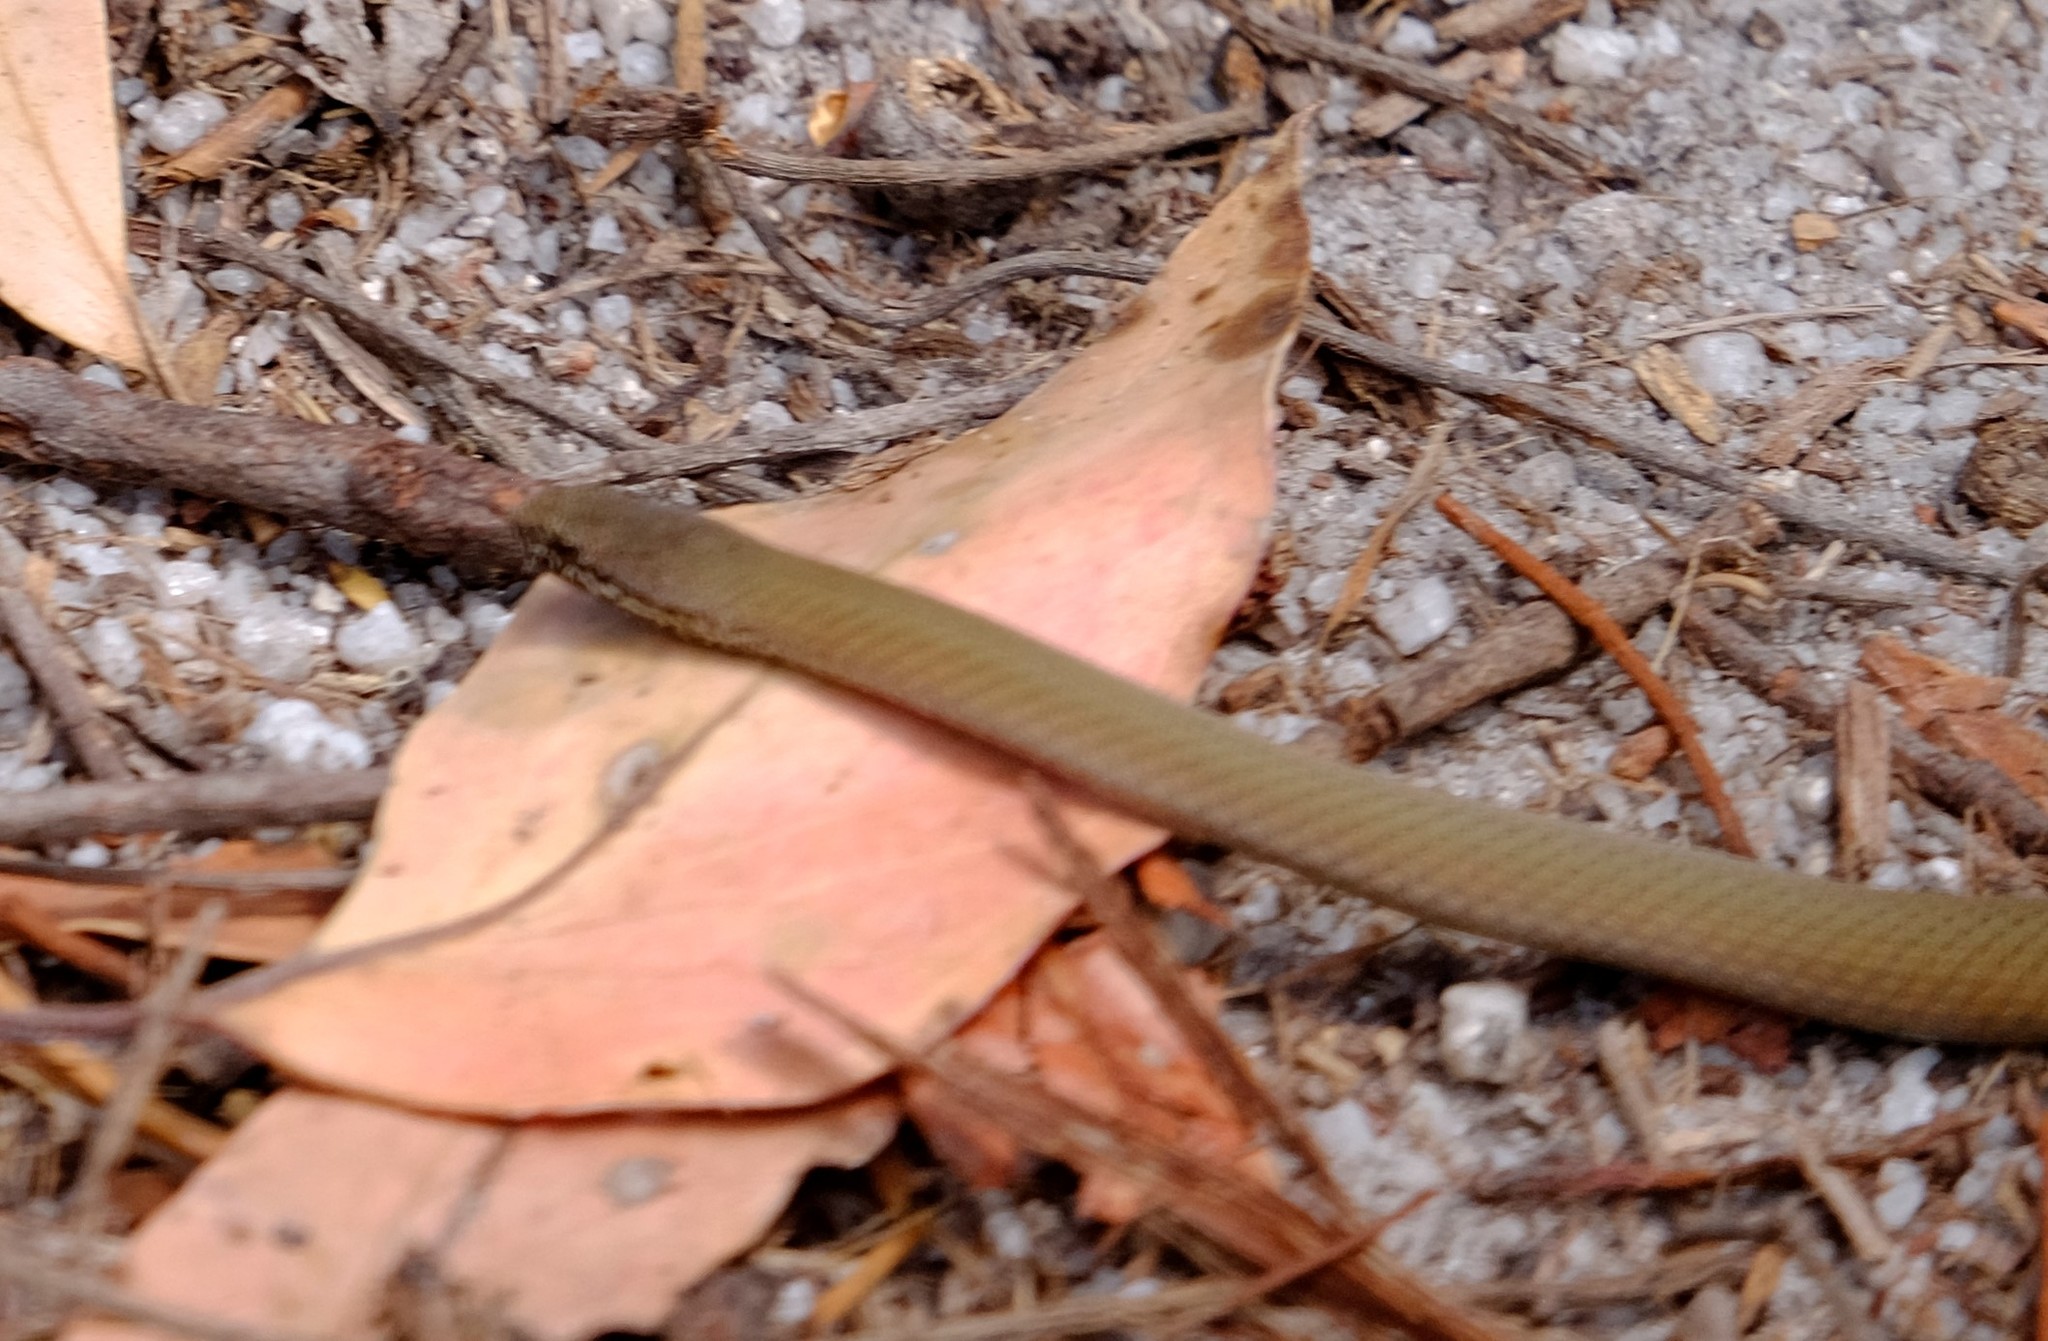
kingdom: Animalia
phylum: Chordata
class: Squamata
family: Elapidae
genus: Drysdalia
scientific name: Drysdalia coronoides
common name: White-lipped snake
